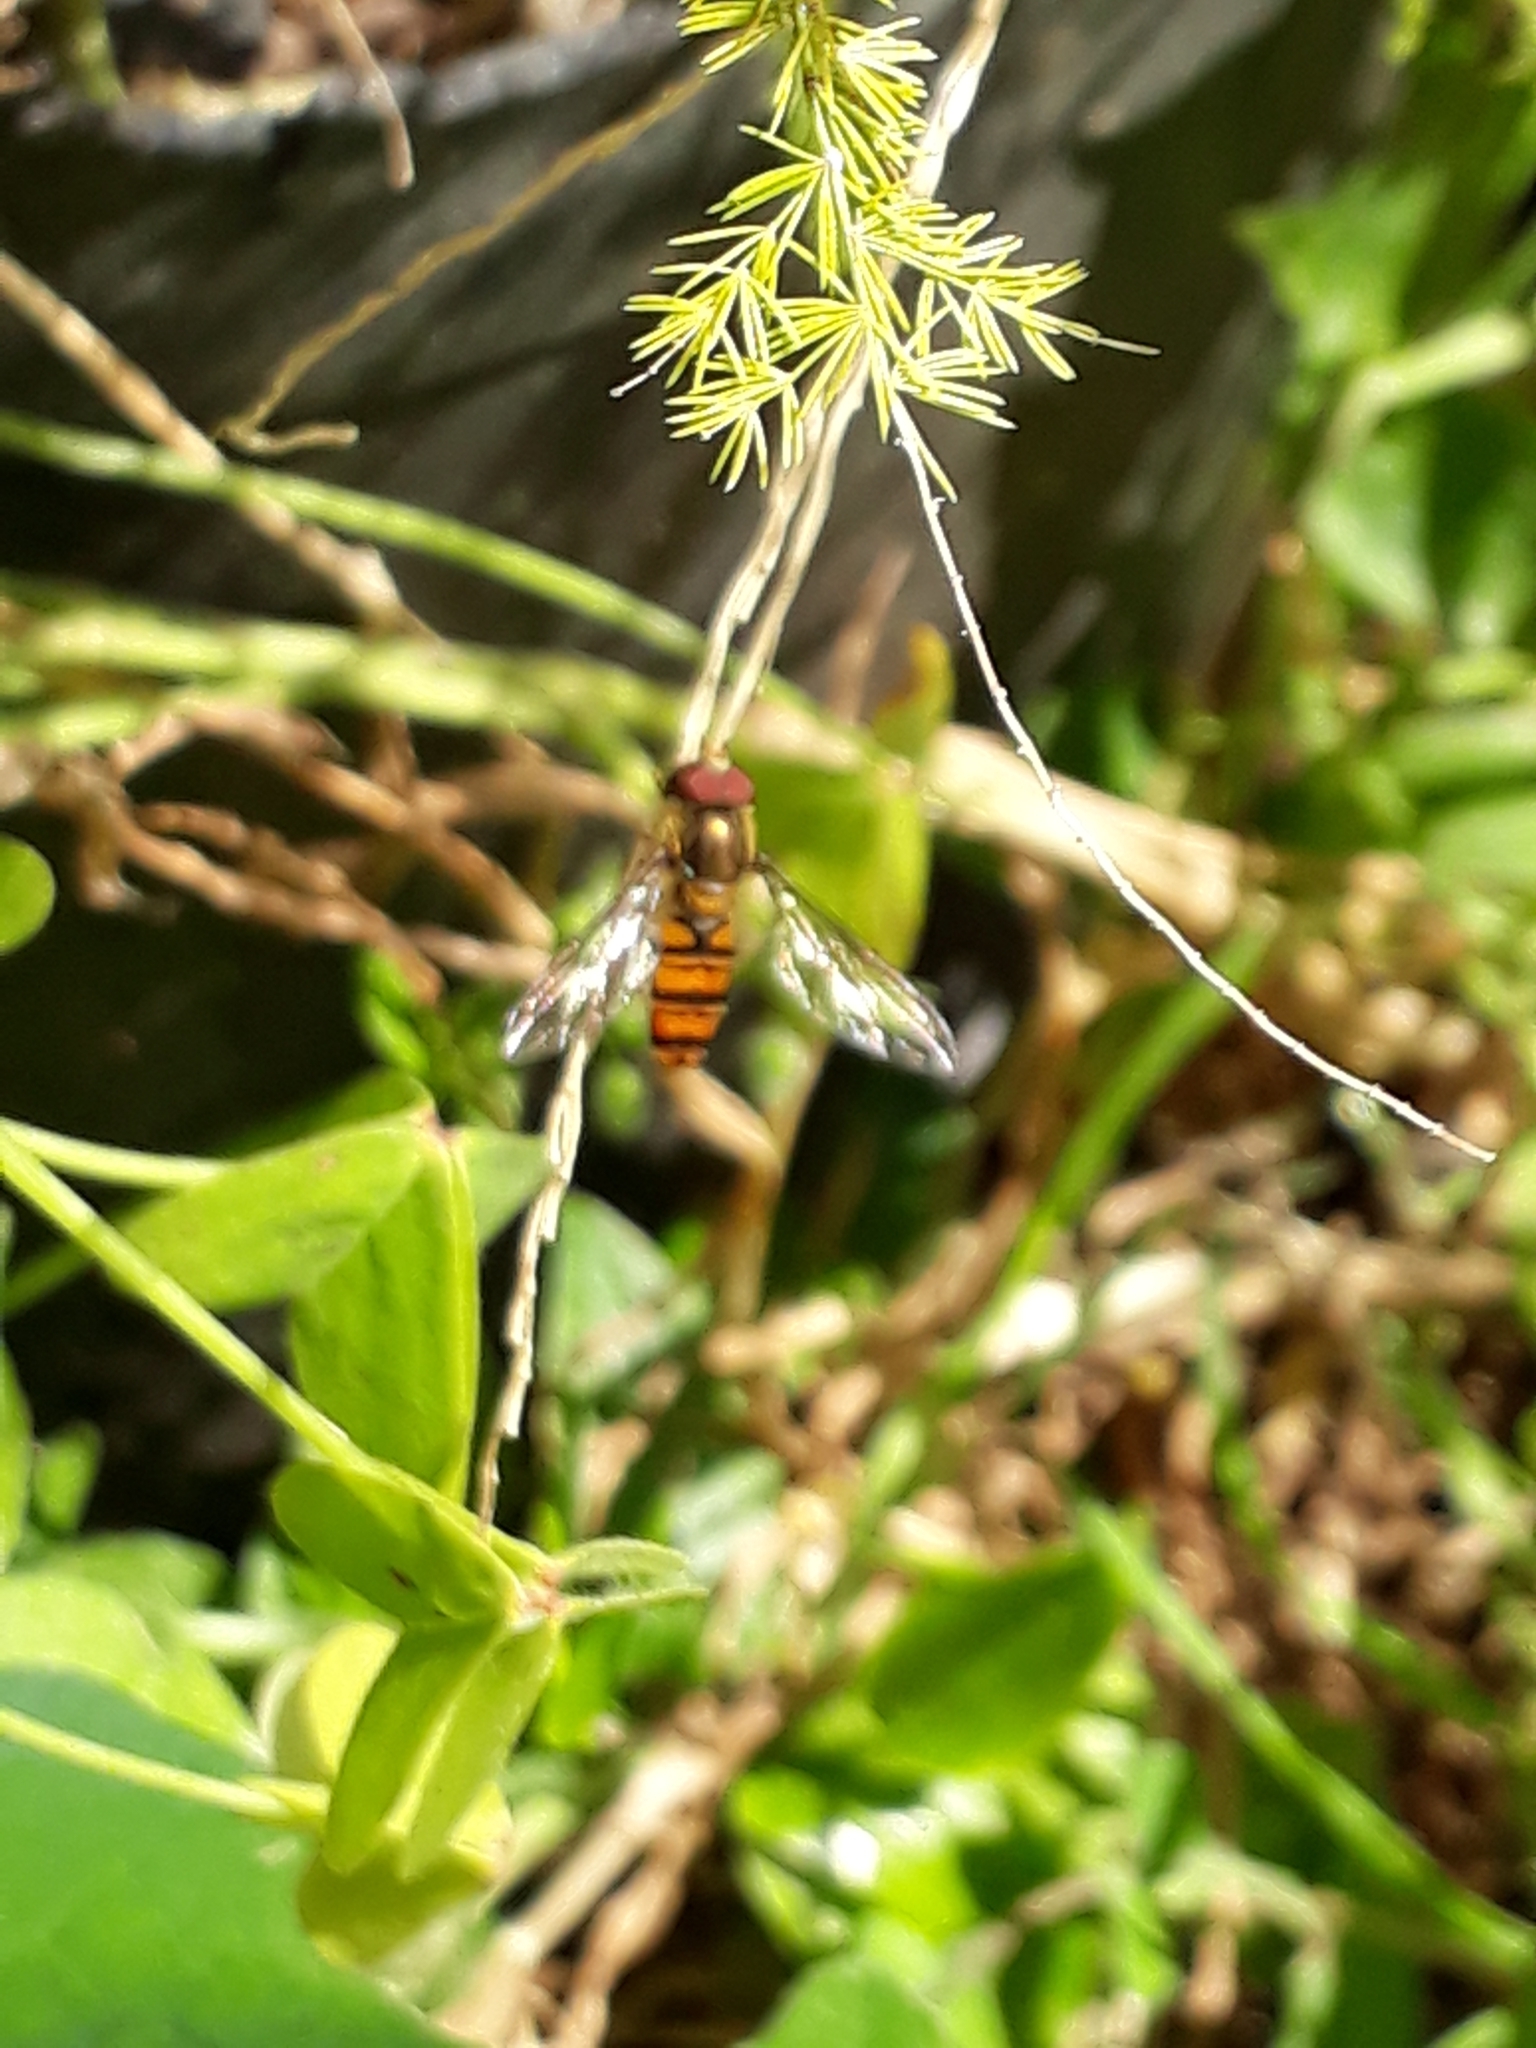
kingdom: Animalia
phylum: Arthropoda
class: Insecta
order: Diptera
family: Syrphidae
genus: Episyrphus
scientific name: Episyrphus balteatus
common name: Marmalade hoverfly
